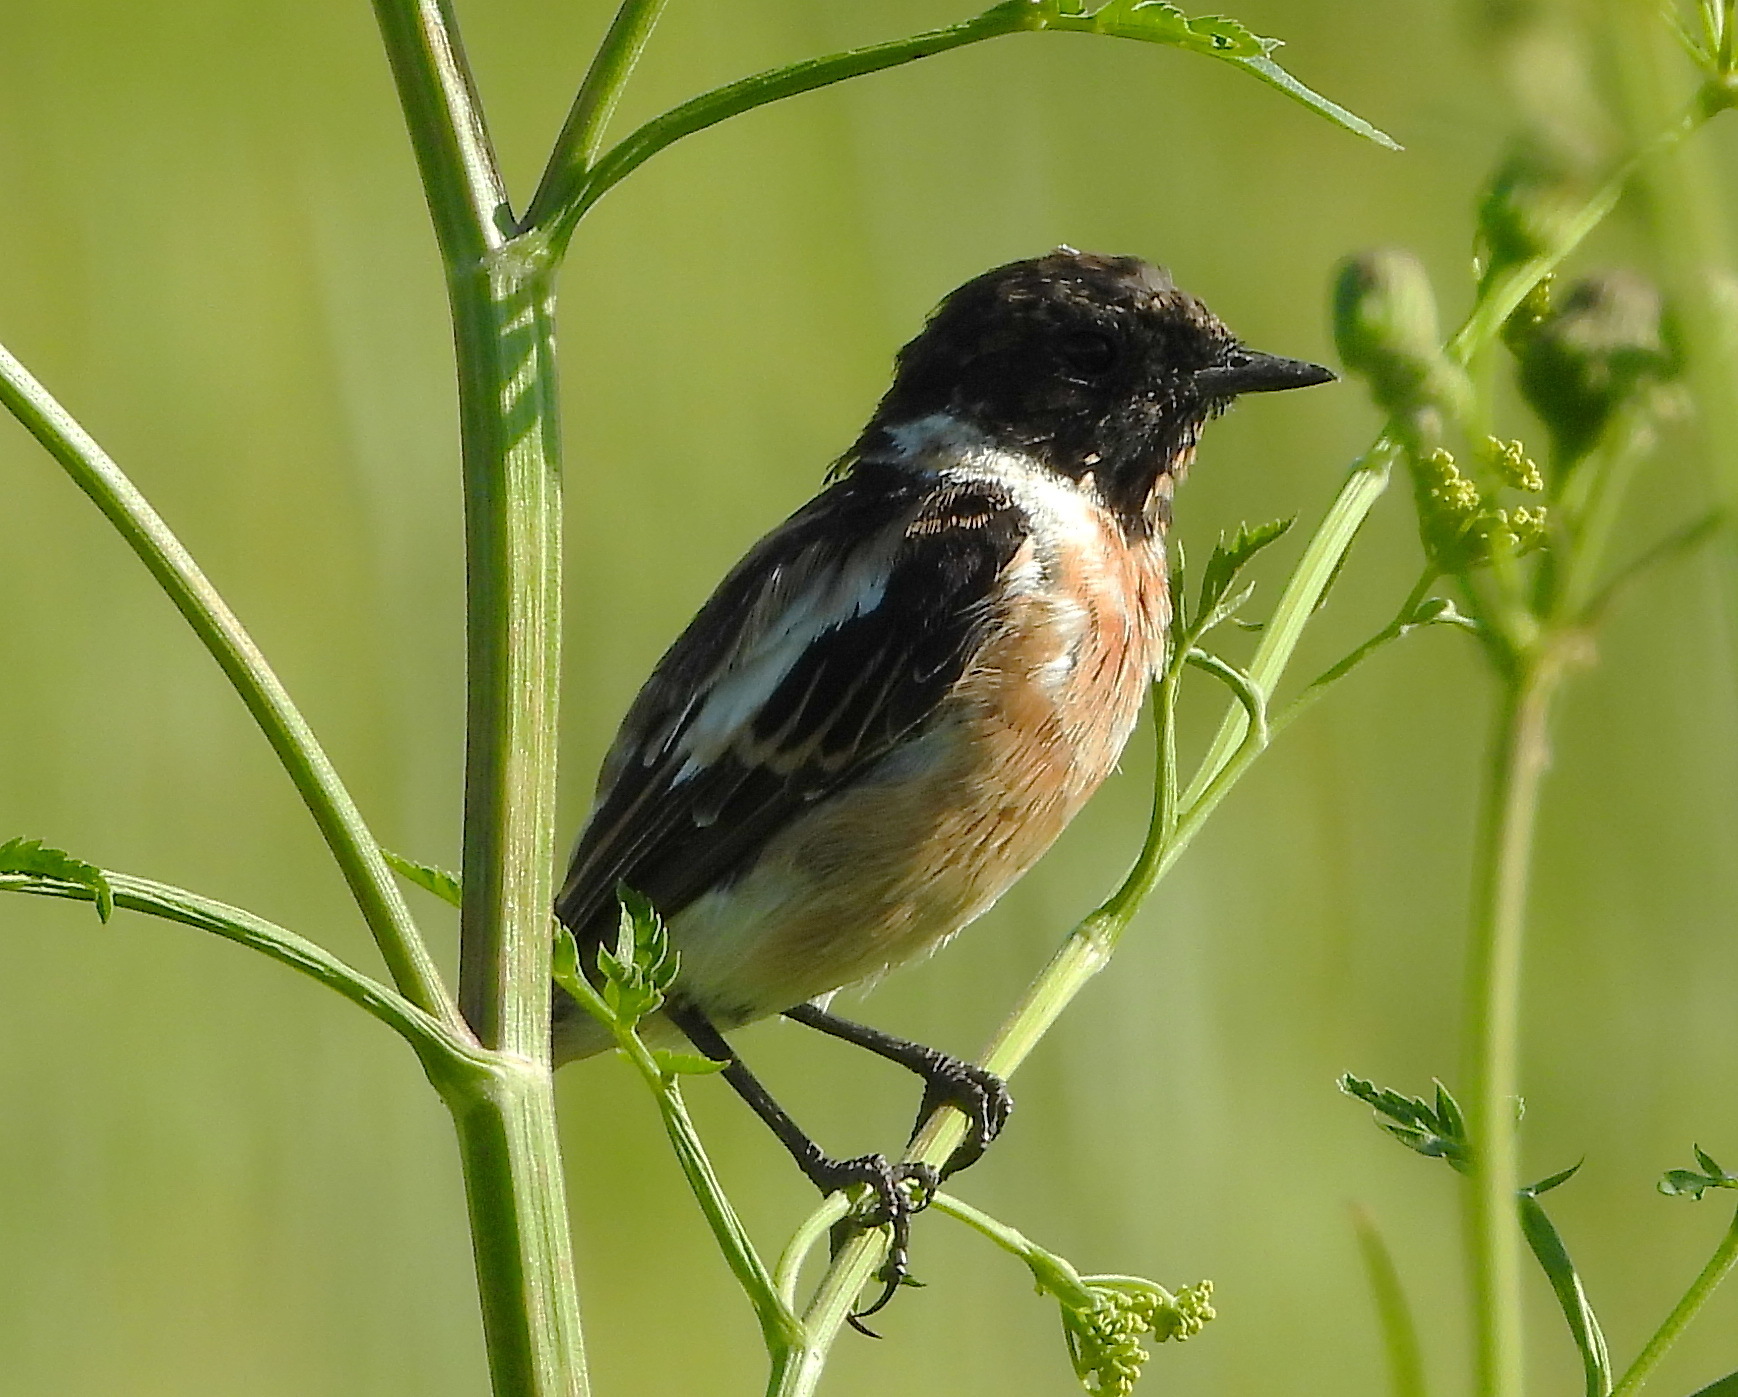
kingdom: Animalia
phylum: Chordata
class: Aves
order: Passeriformes
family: Muscicapidae
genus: Saxicola
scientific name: Saxicola maurus
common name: Siberian stonechat
